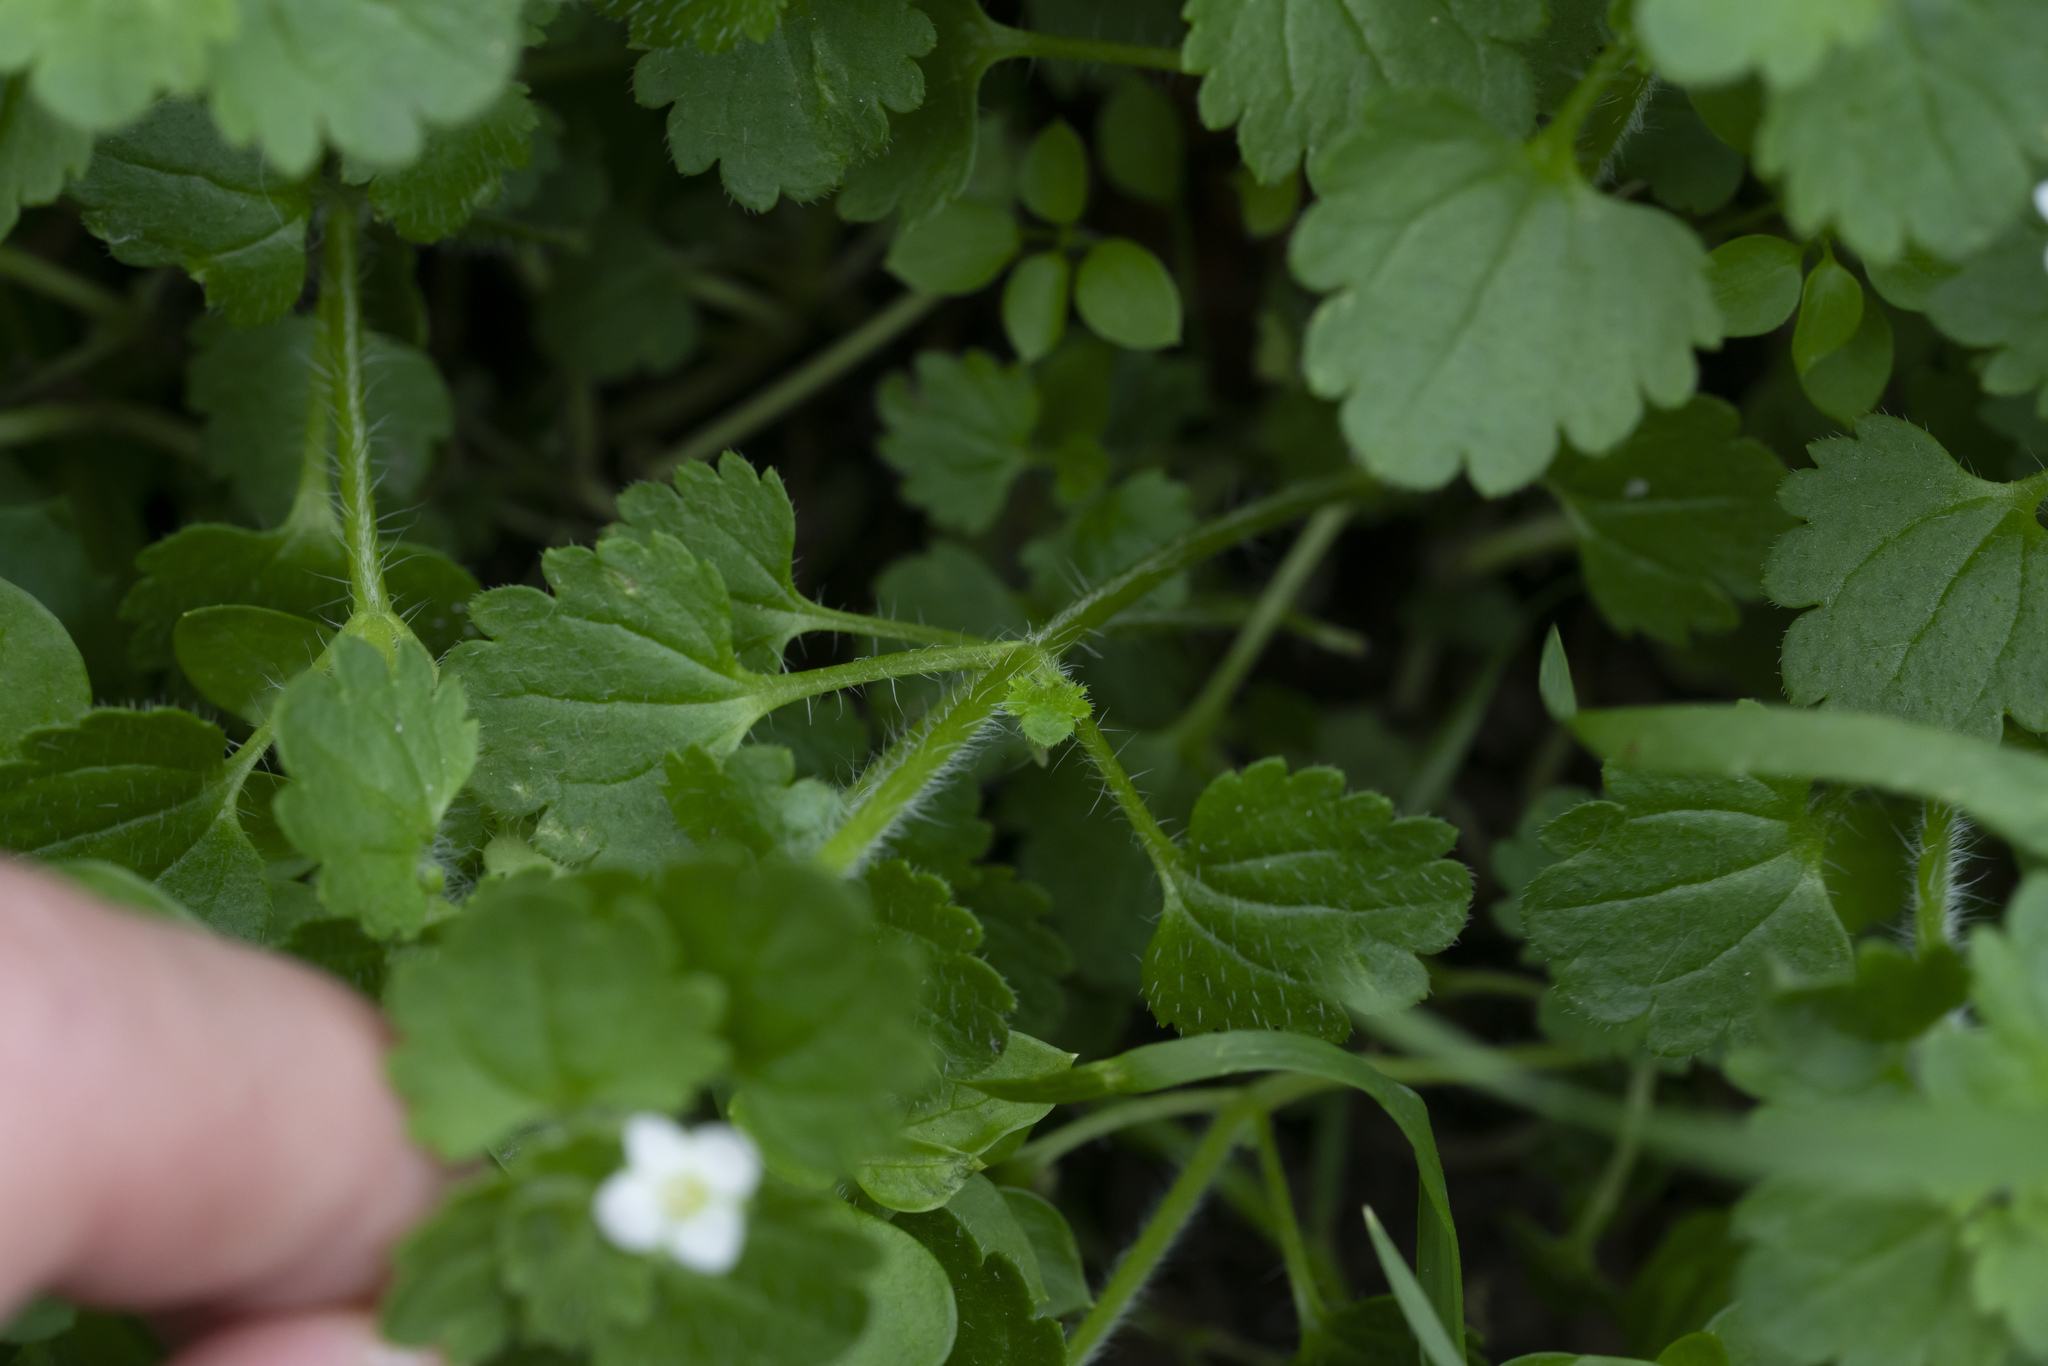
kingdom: Plantae
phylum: Tracheophyta
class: Magnoliopsida
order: Lamiales
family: Plantaginaceae
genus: Veronica
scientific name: Veronica cymbalaria
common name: Pale speedwell
